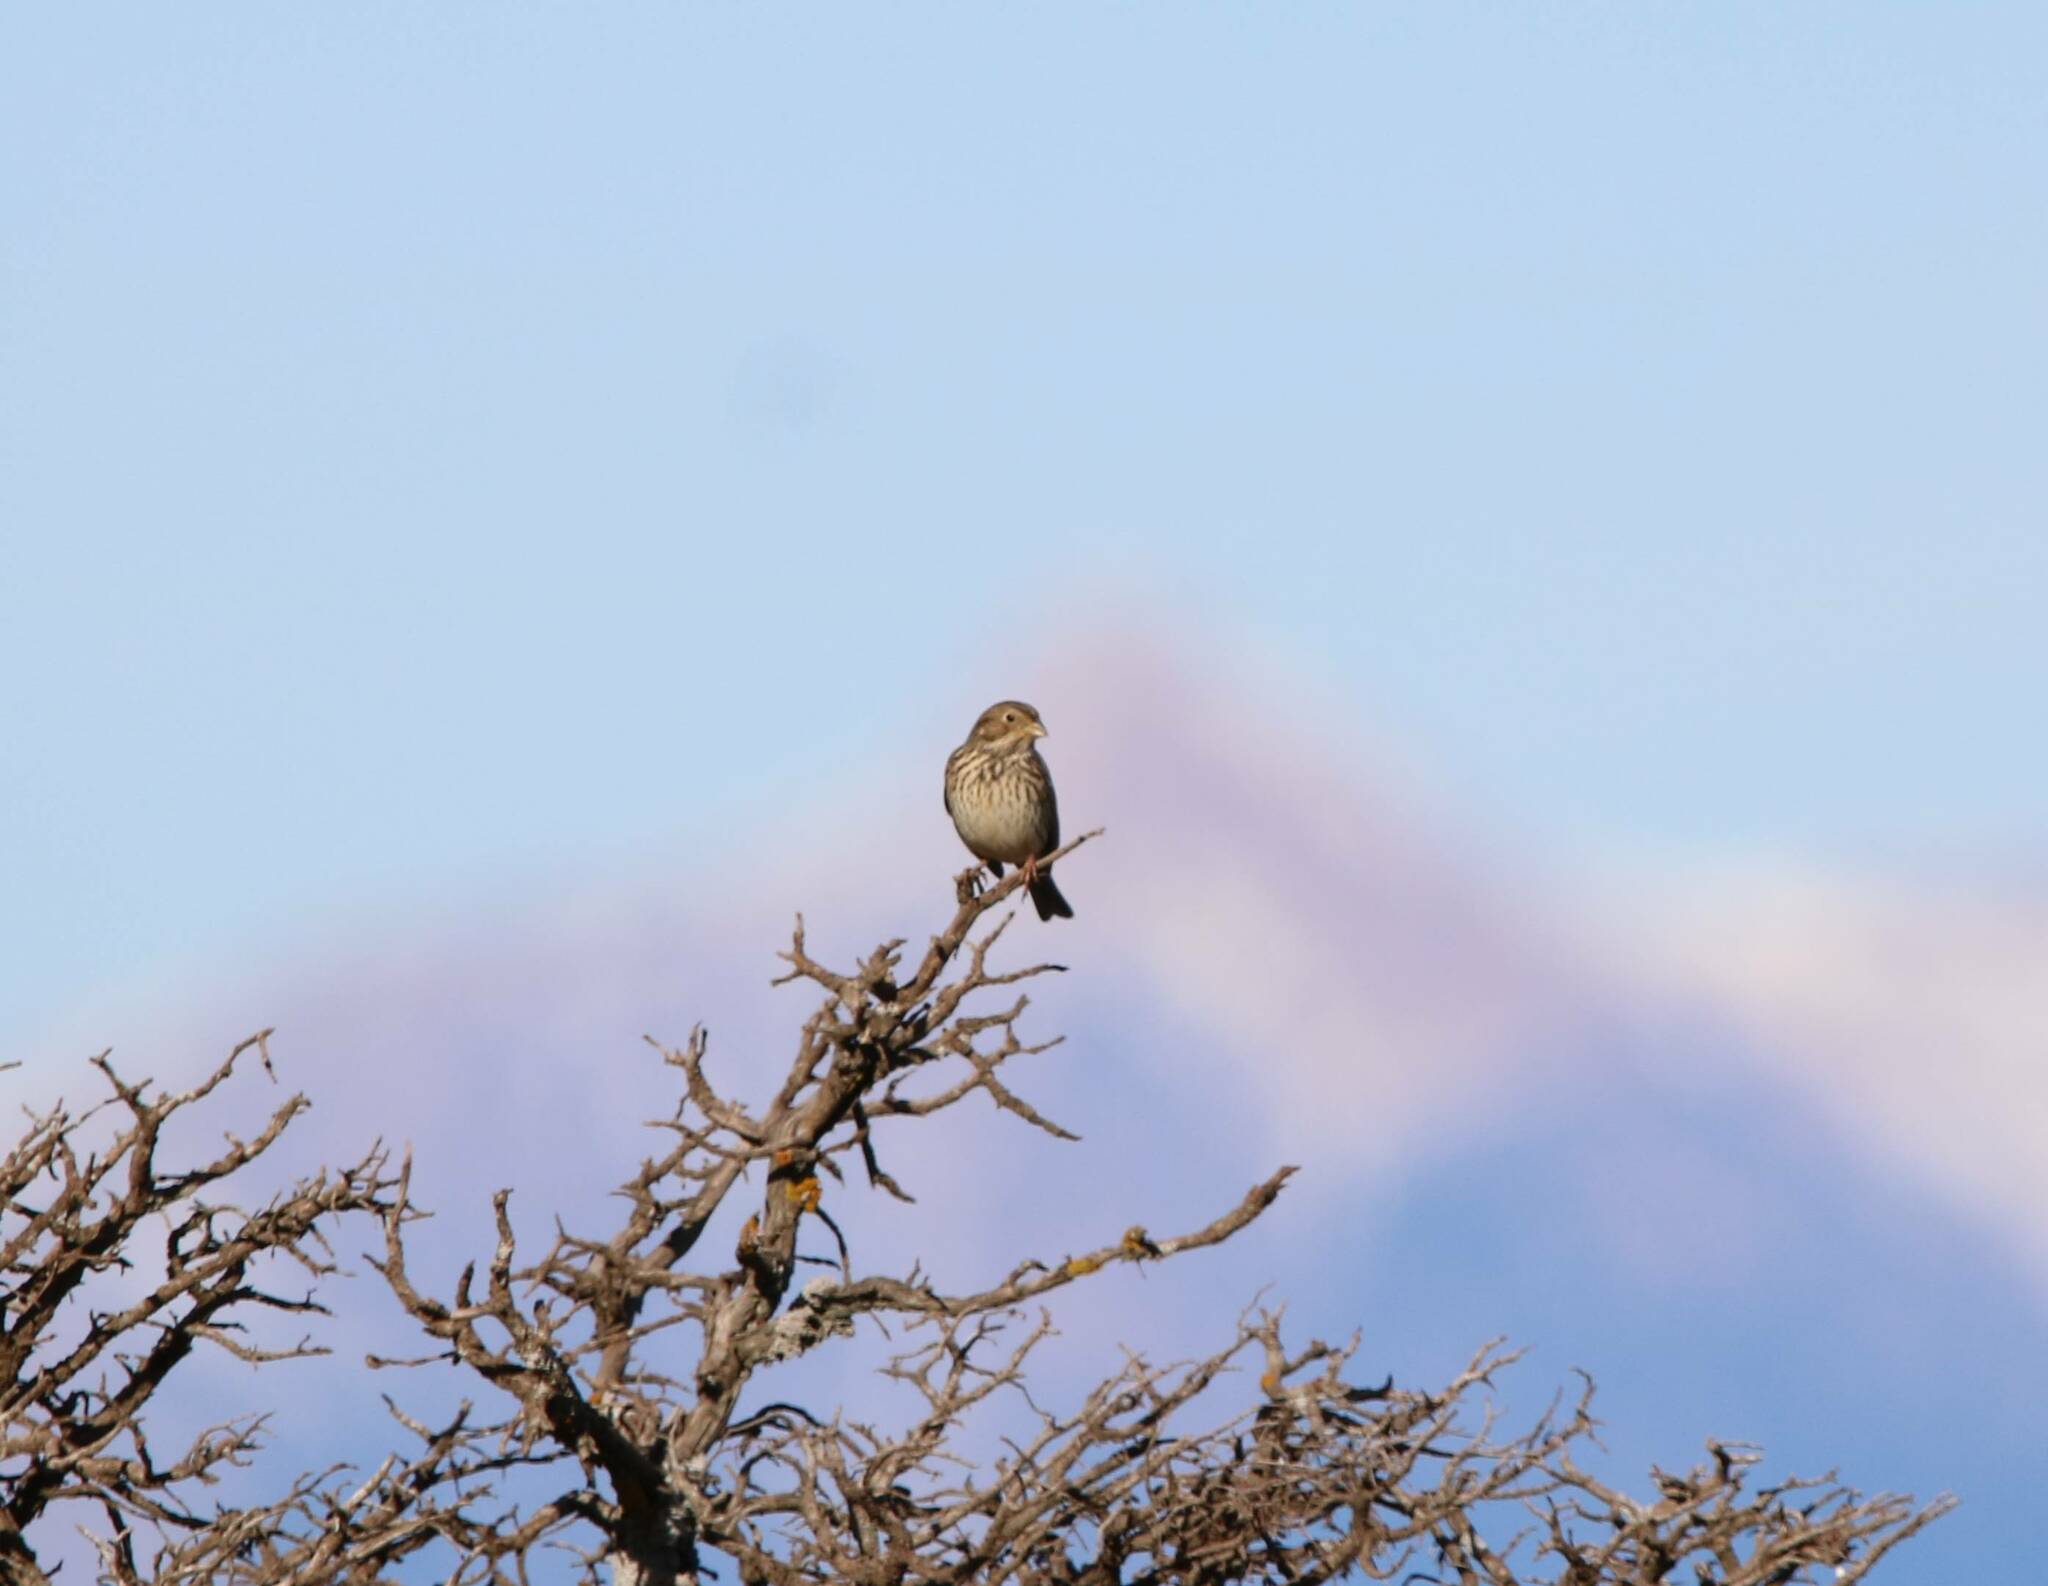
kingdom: Animalia
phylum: Chordata
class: Aves
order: Passeriformes
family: Emberizidae
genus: Emberiza
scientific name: Emberiza calandra
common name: Corn bunting
